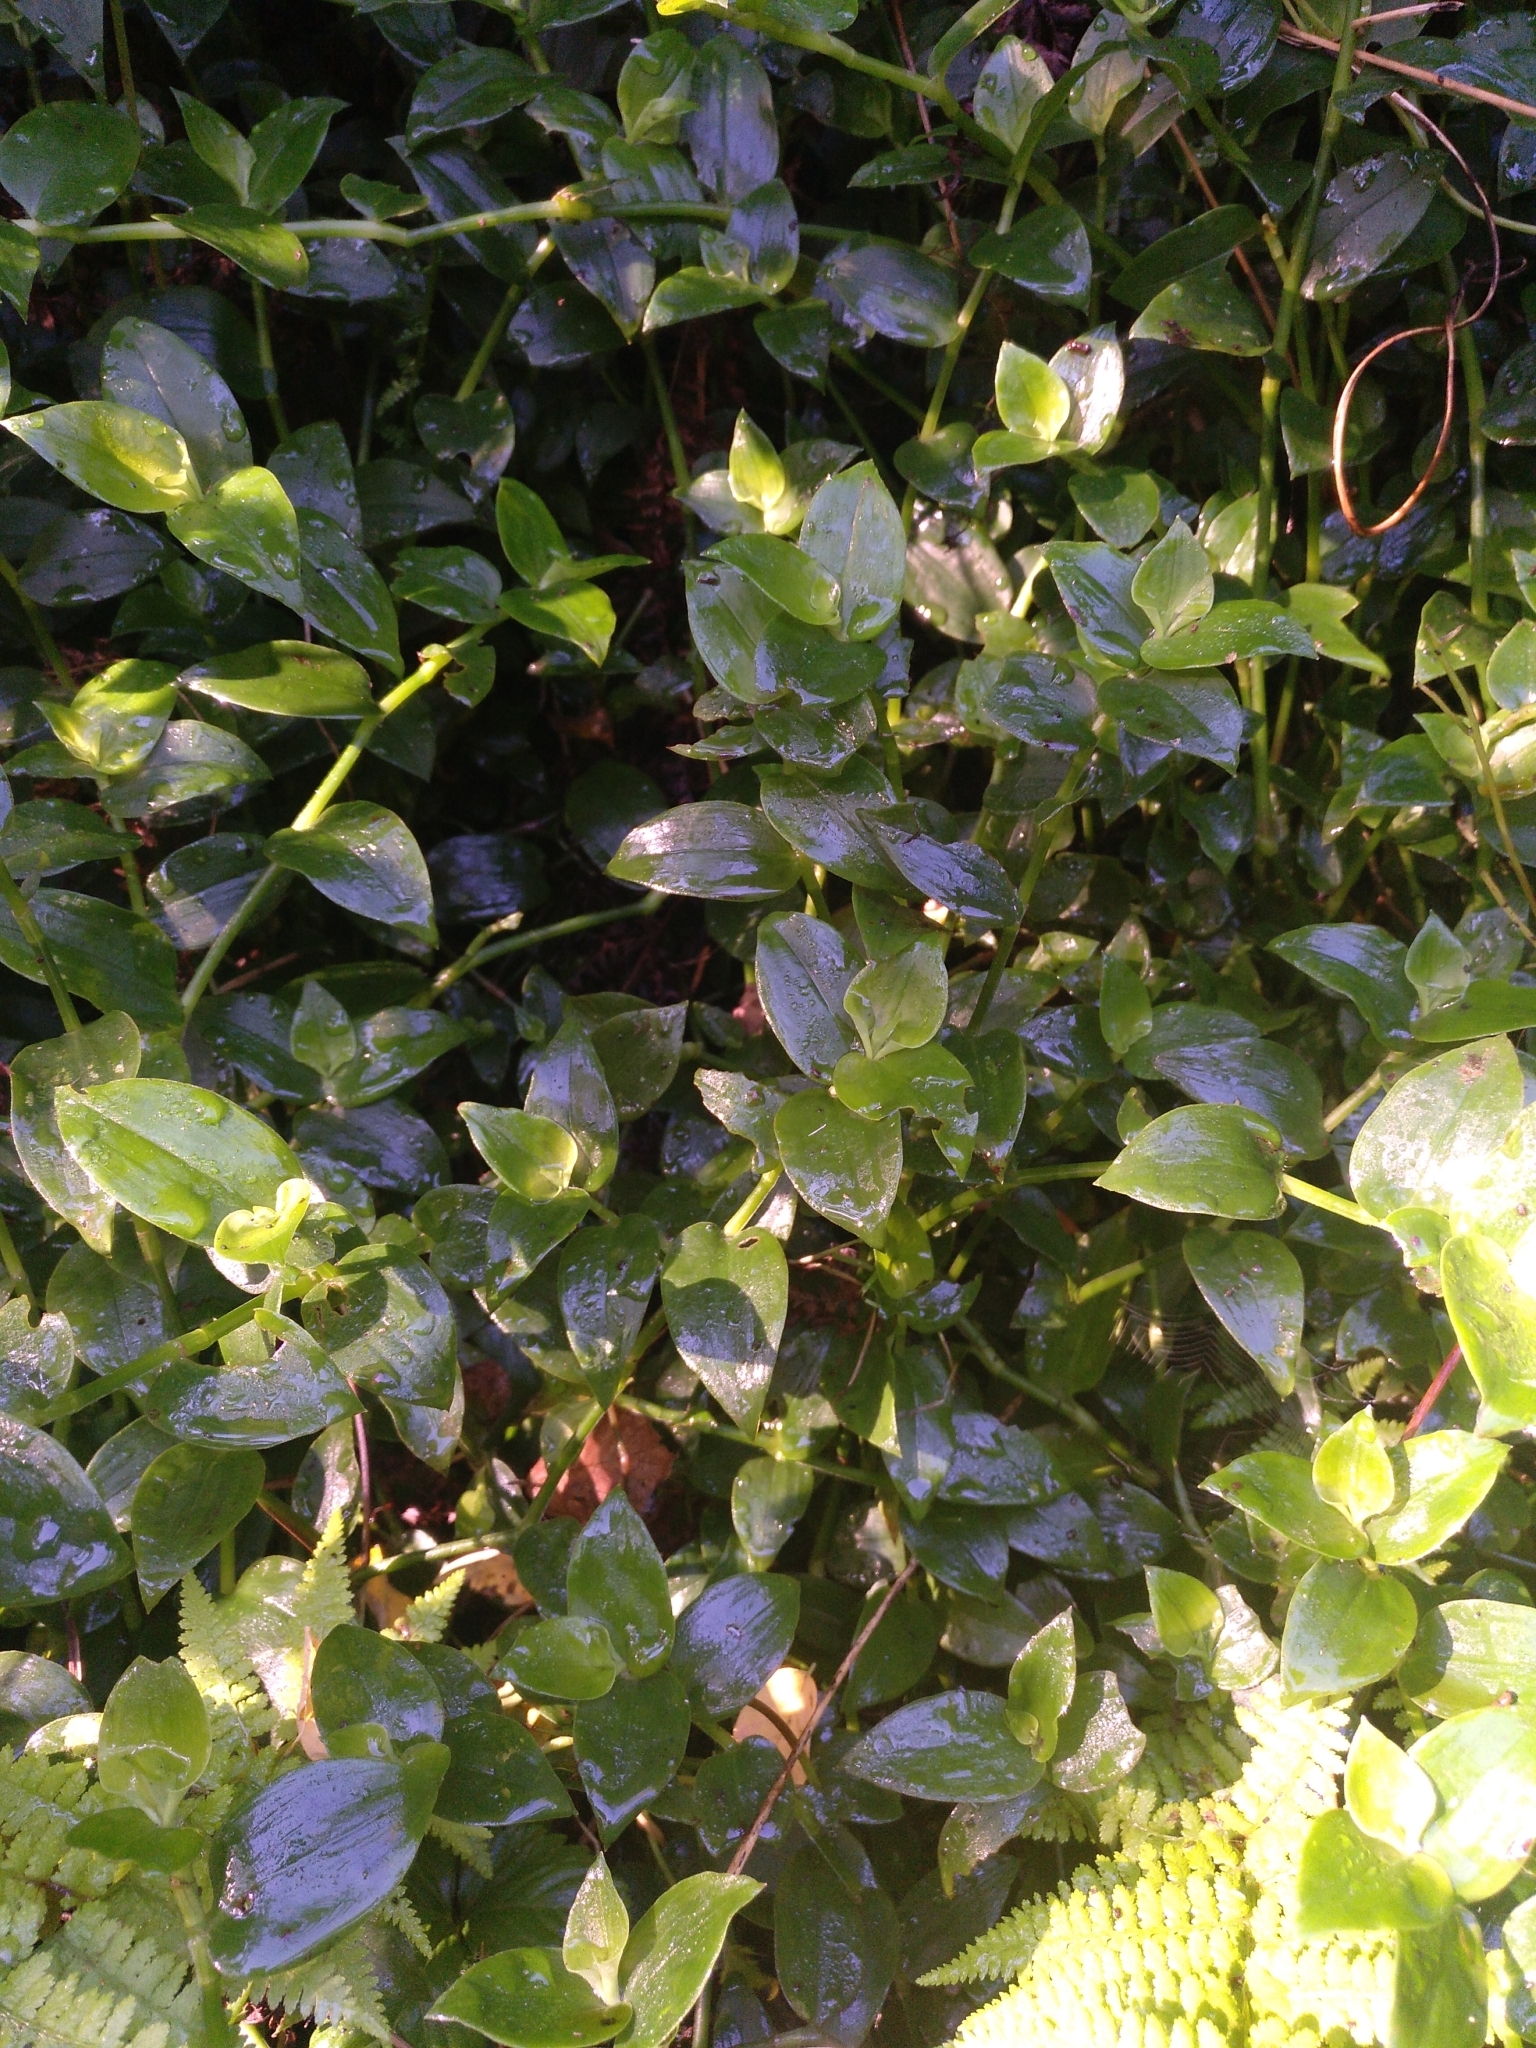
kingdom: Plantae
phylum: Tracheophyta
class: Liliopsida
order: Commelinales
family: Commelinaceae
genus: Tradescantia
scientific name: Tradescantia fluminensis
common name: Wandering-jew
